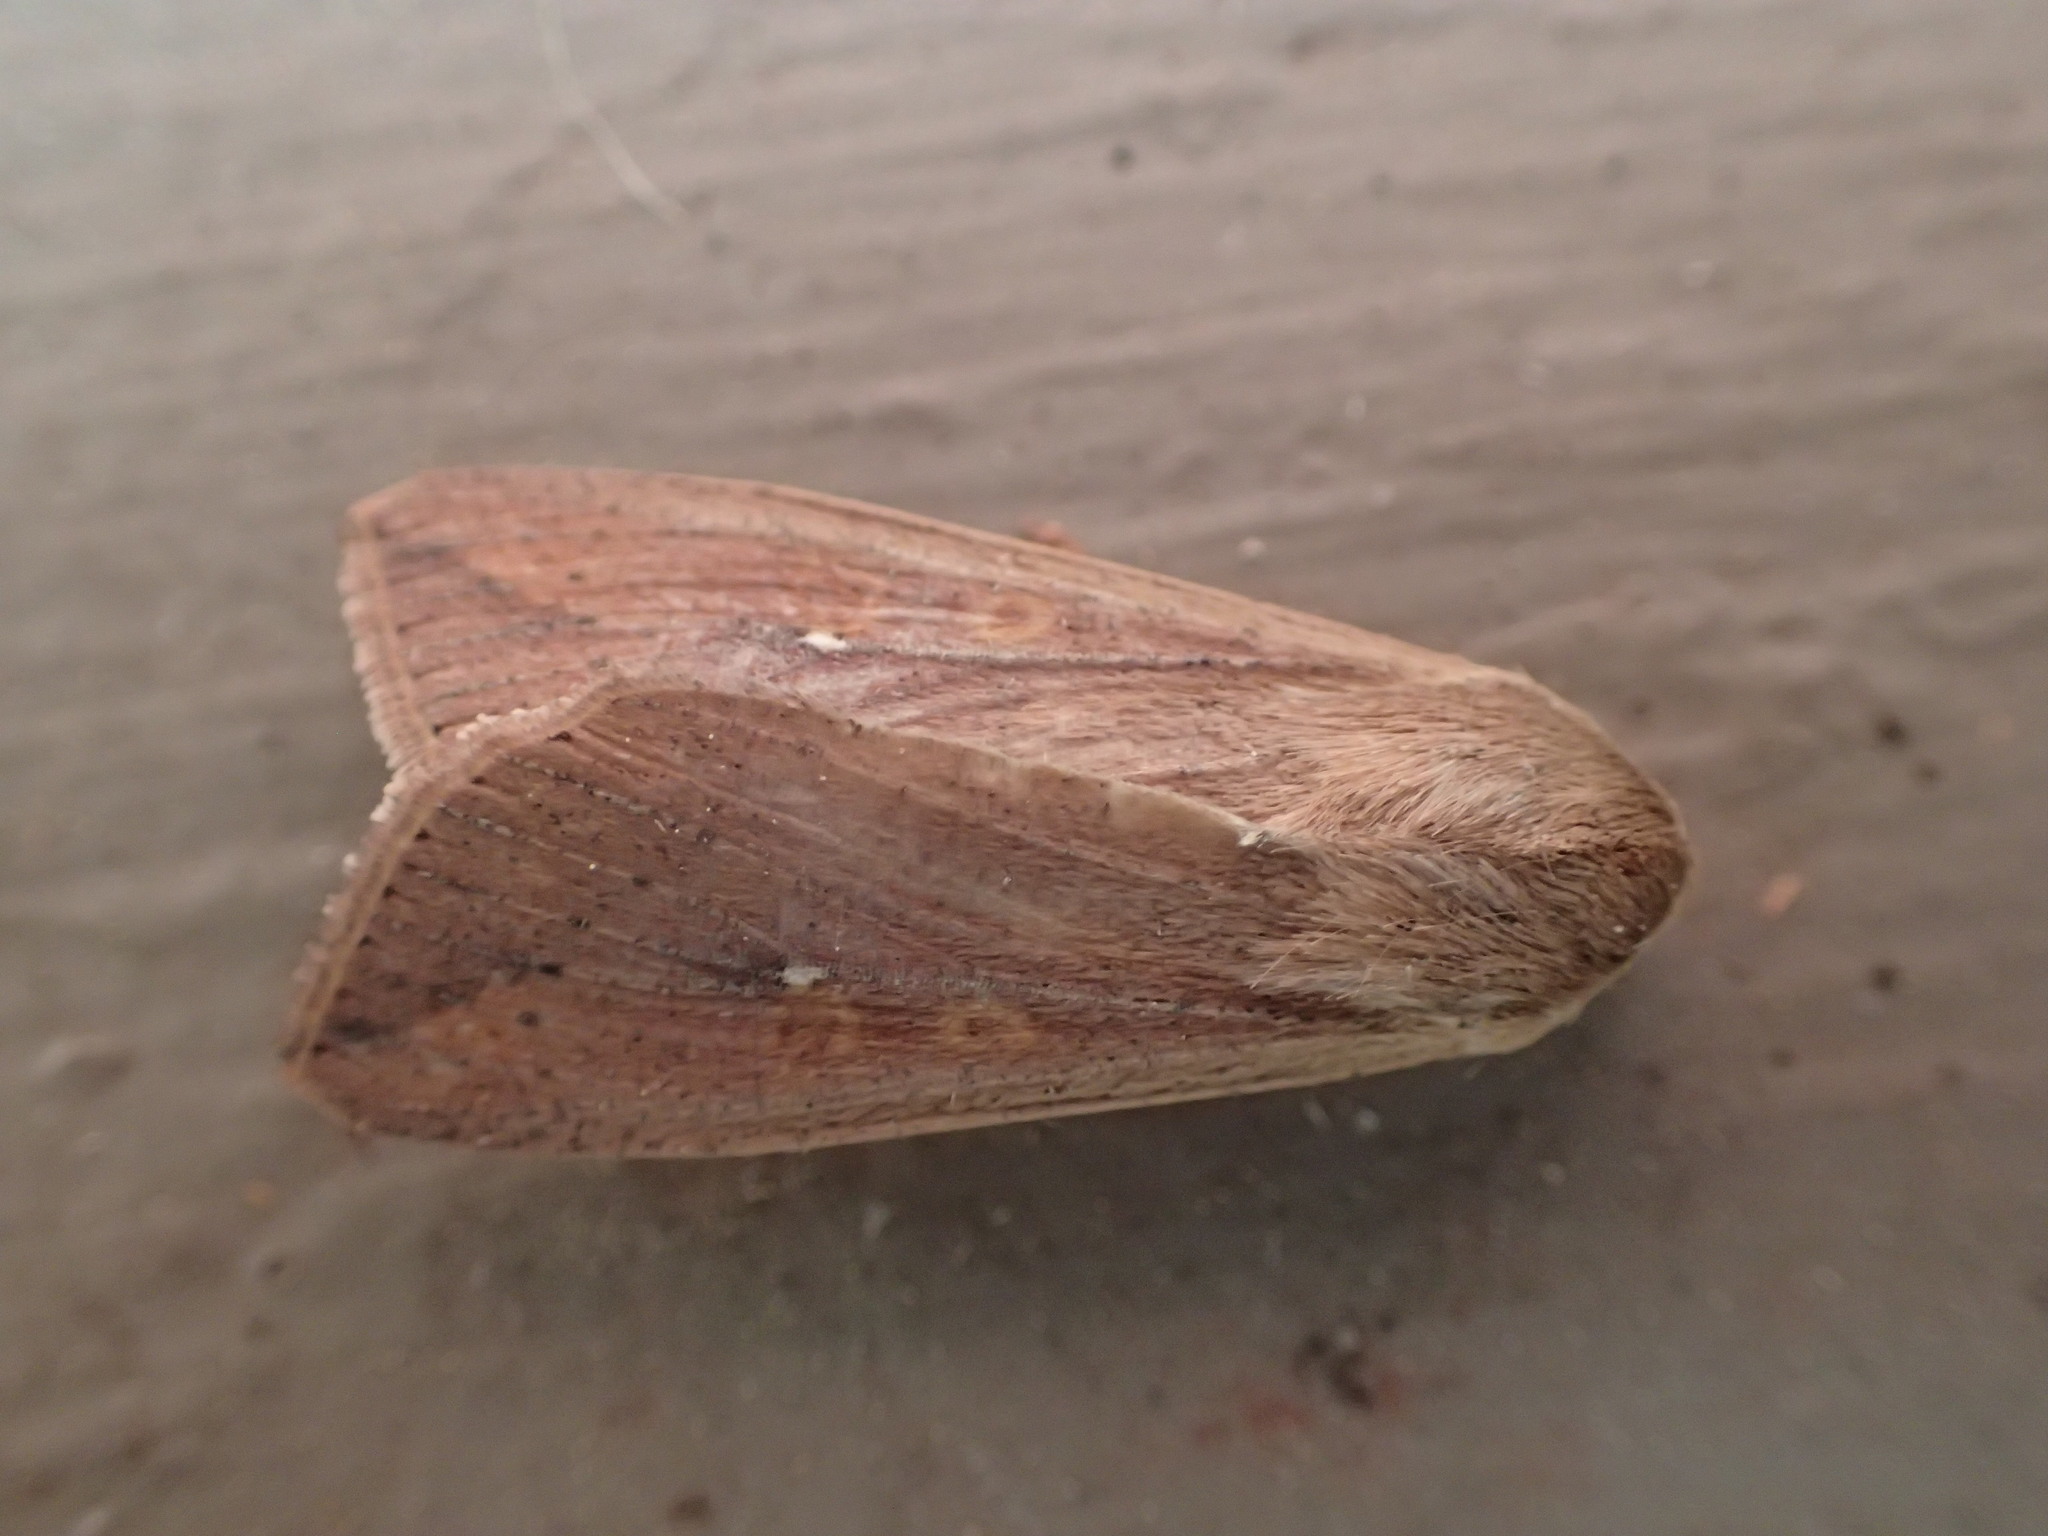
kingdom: Animalia
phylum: Arthropoda
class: Insecta
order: Lepidoptera
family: Noctuidae
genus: Mythimna
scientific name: Mythimna unipuncta
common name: White-speck
